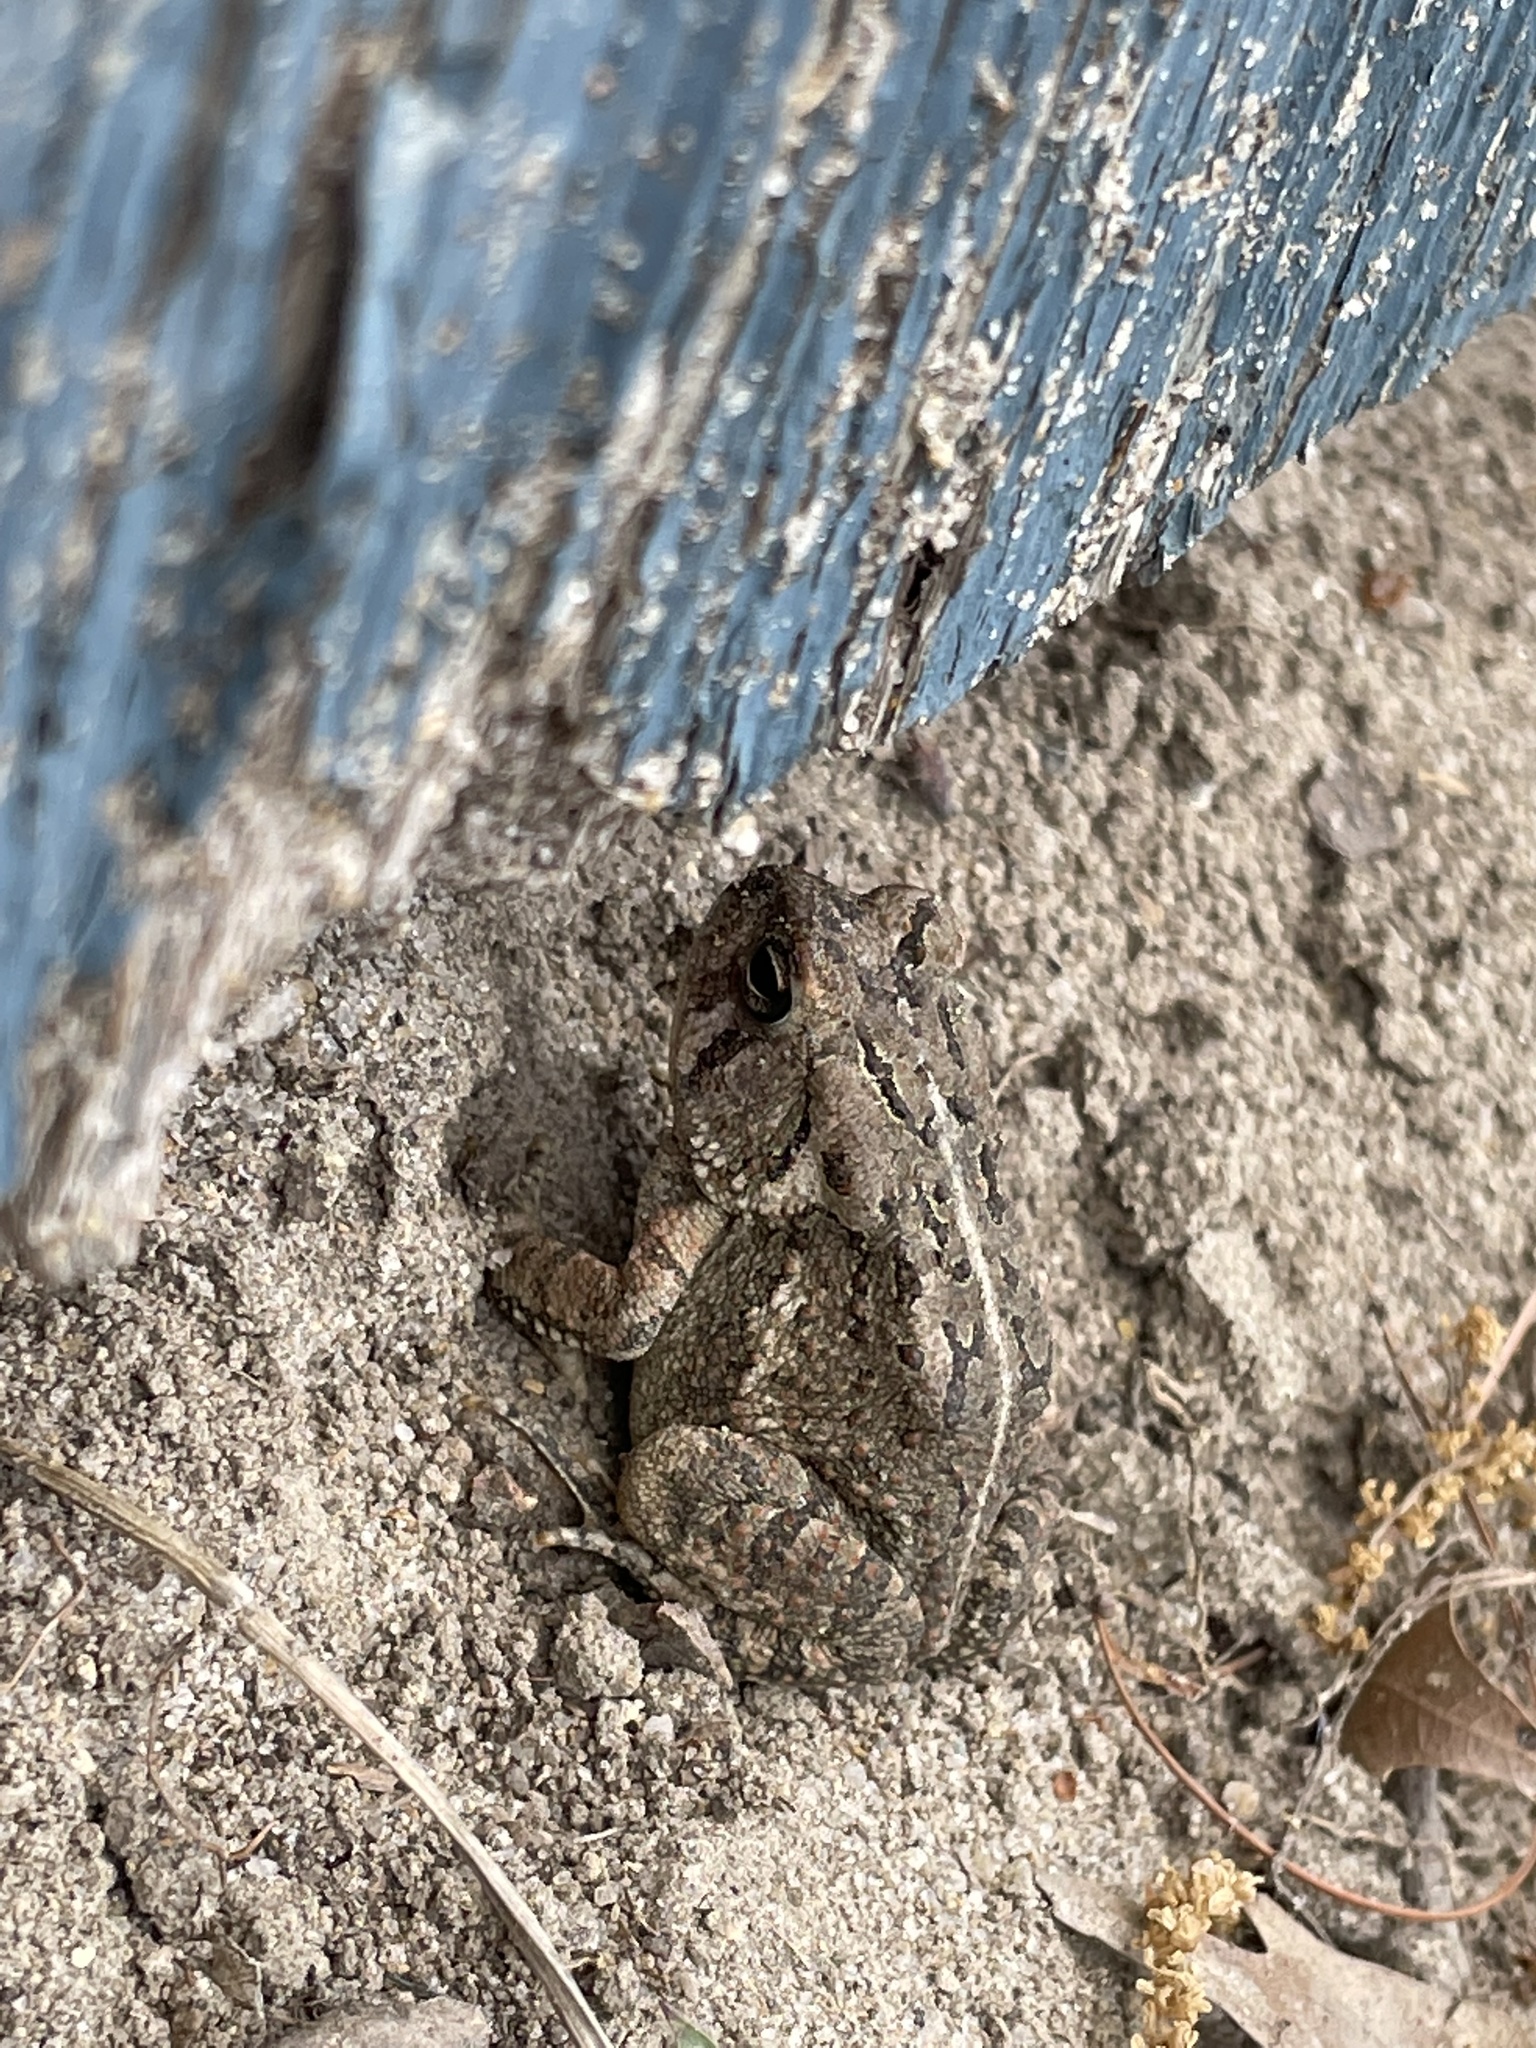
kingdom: Animalia
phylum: Chordata
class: Amphibia
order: Anura
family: Bufonidae
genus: Anaxyrus
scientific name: Anaxyrus fowleri
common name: Fowler's toad
